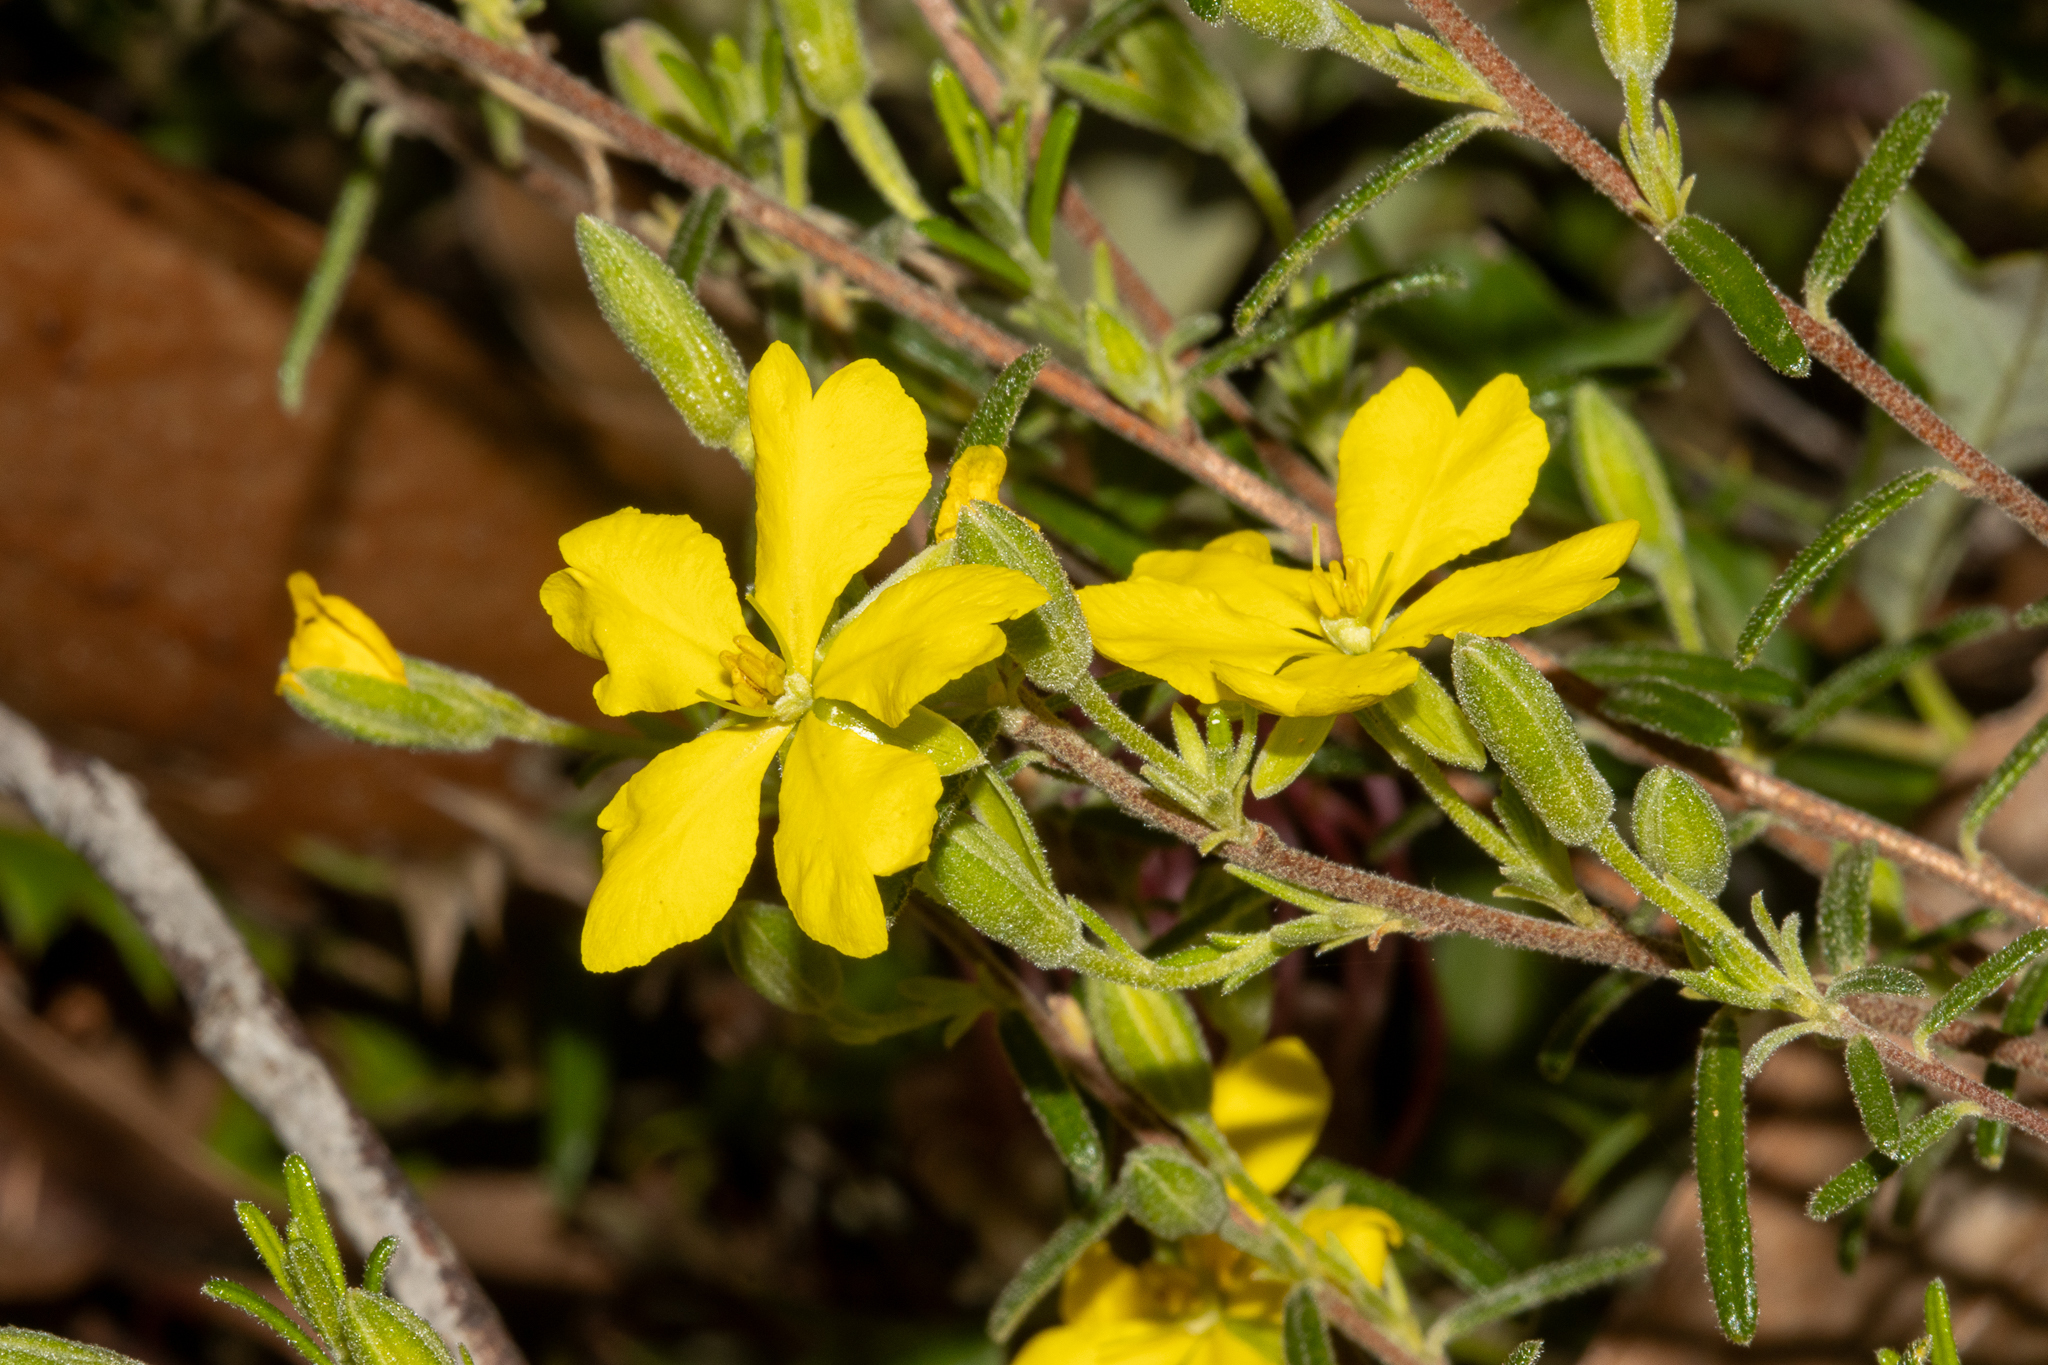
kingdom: Plantae
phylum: Tracheophyta
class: Magnoliopsida
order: Dilleniales
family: Dilleniaceae
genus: Hibbertia
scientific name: Hibbertia australis
